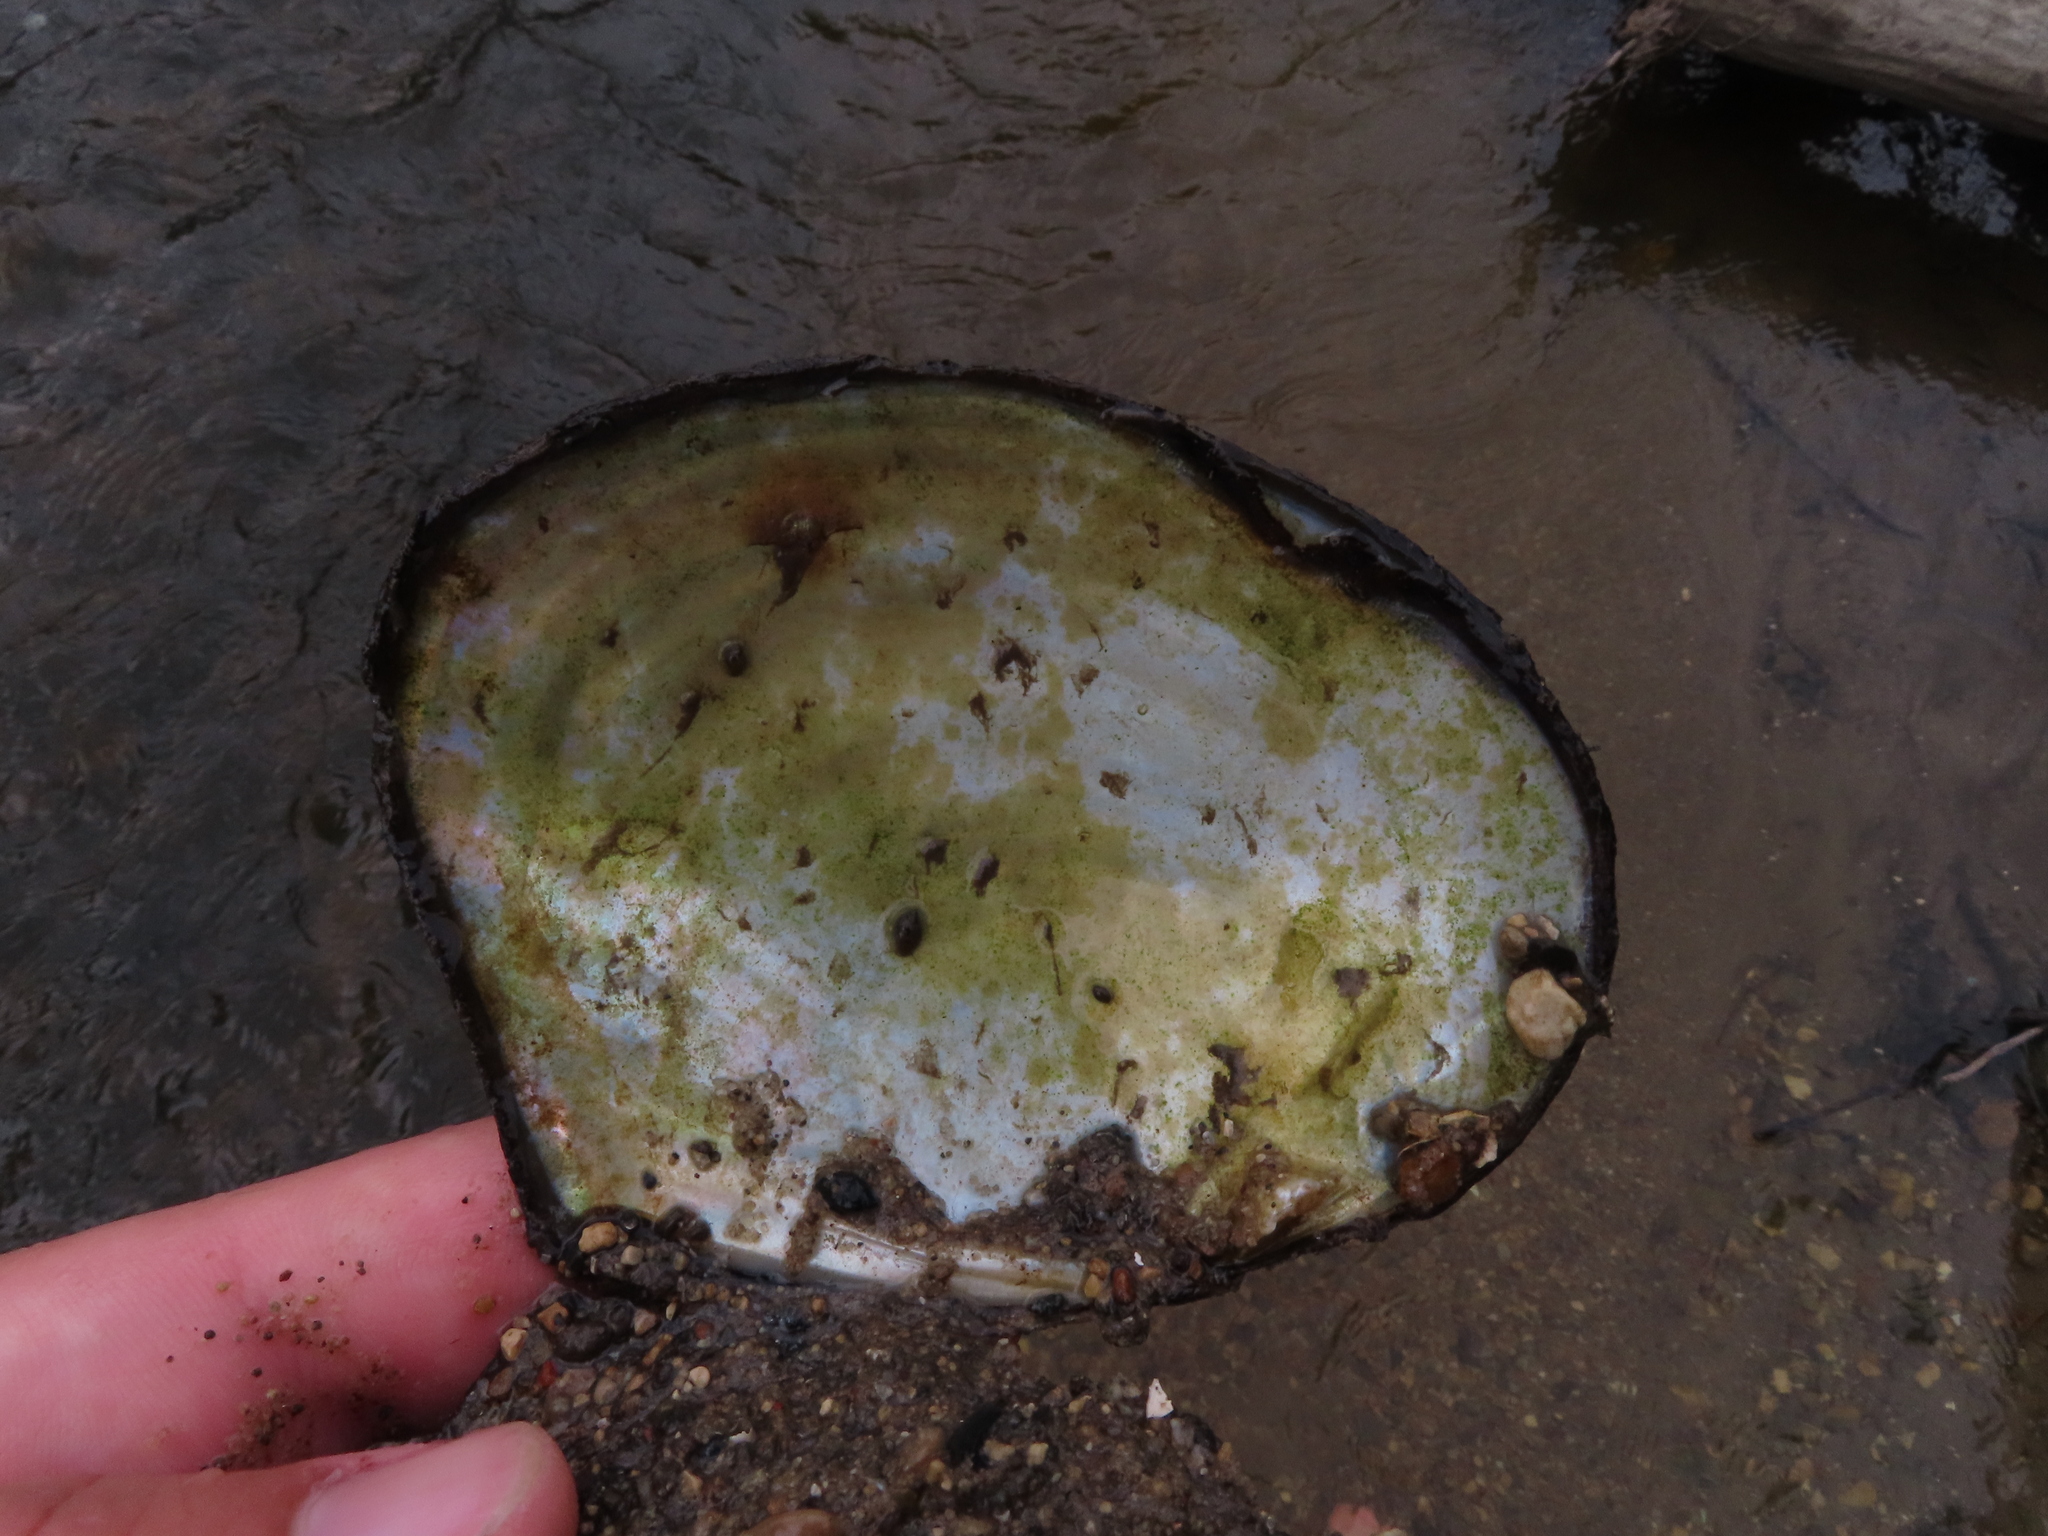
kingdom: Animalia
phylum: Mollusca
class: Bivalvia
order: Unionida
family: Unionidae
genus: Lasmigona
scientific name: Lasmigona complanata
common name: White heelsplitter
